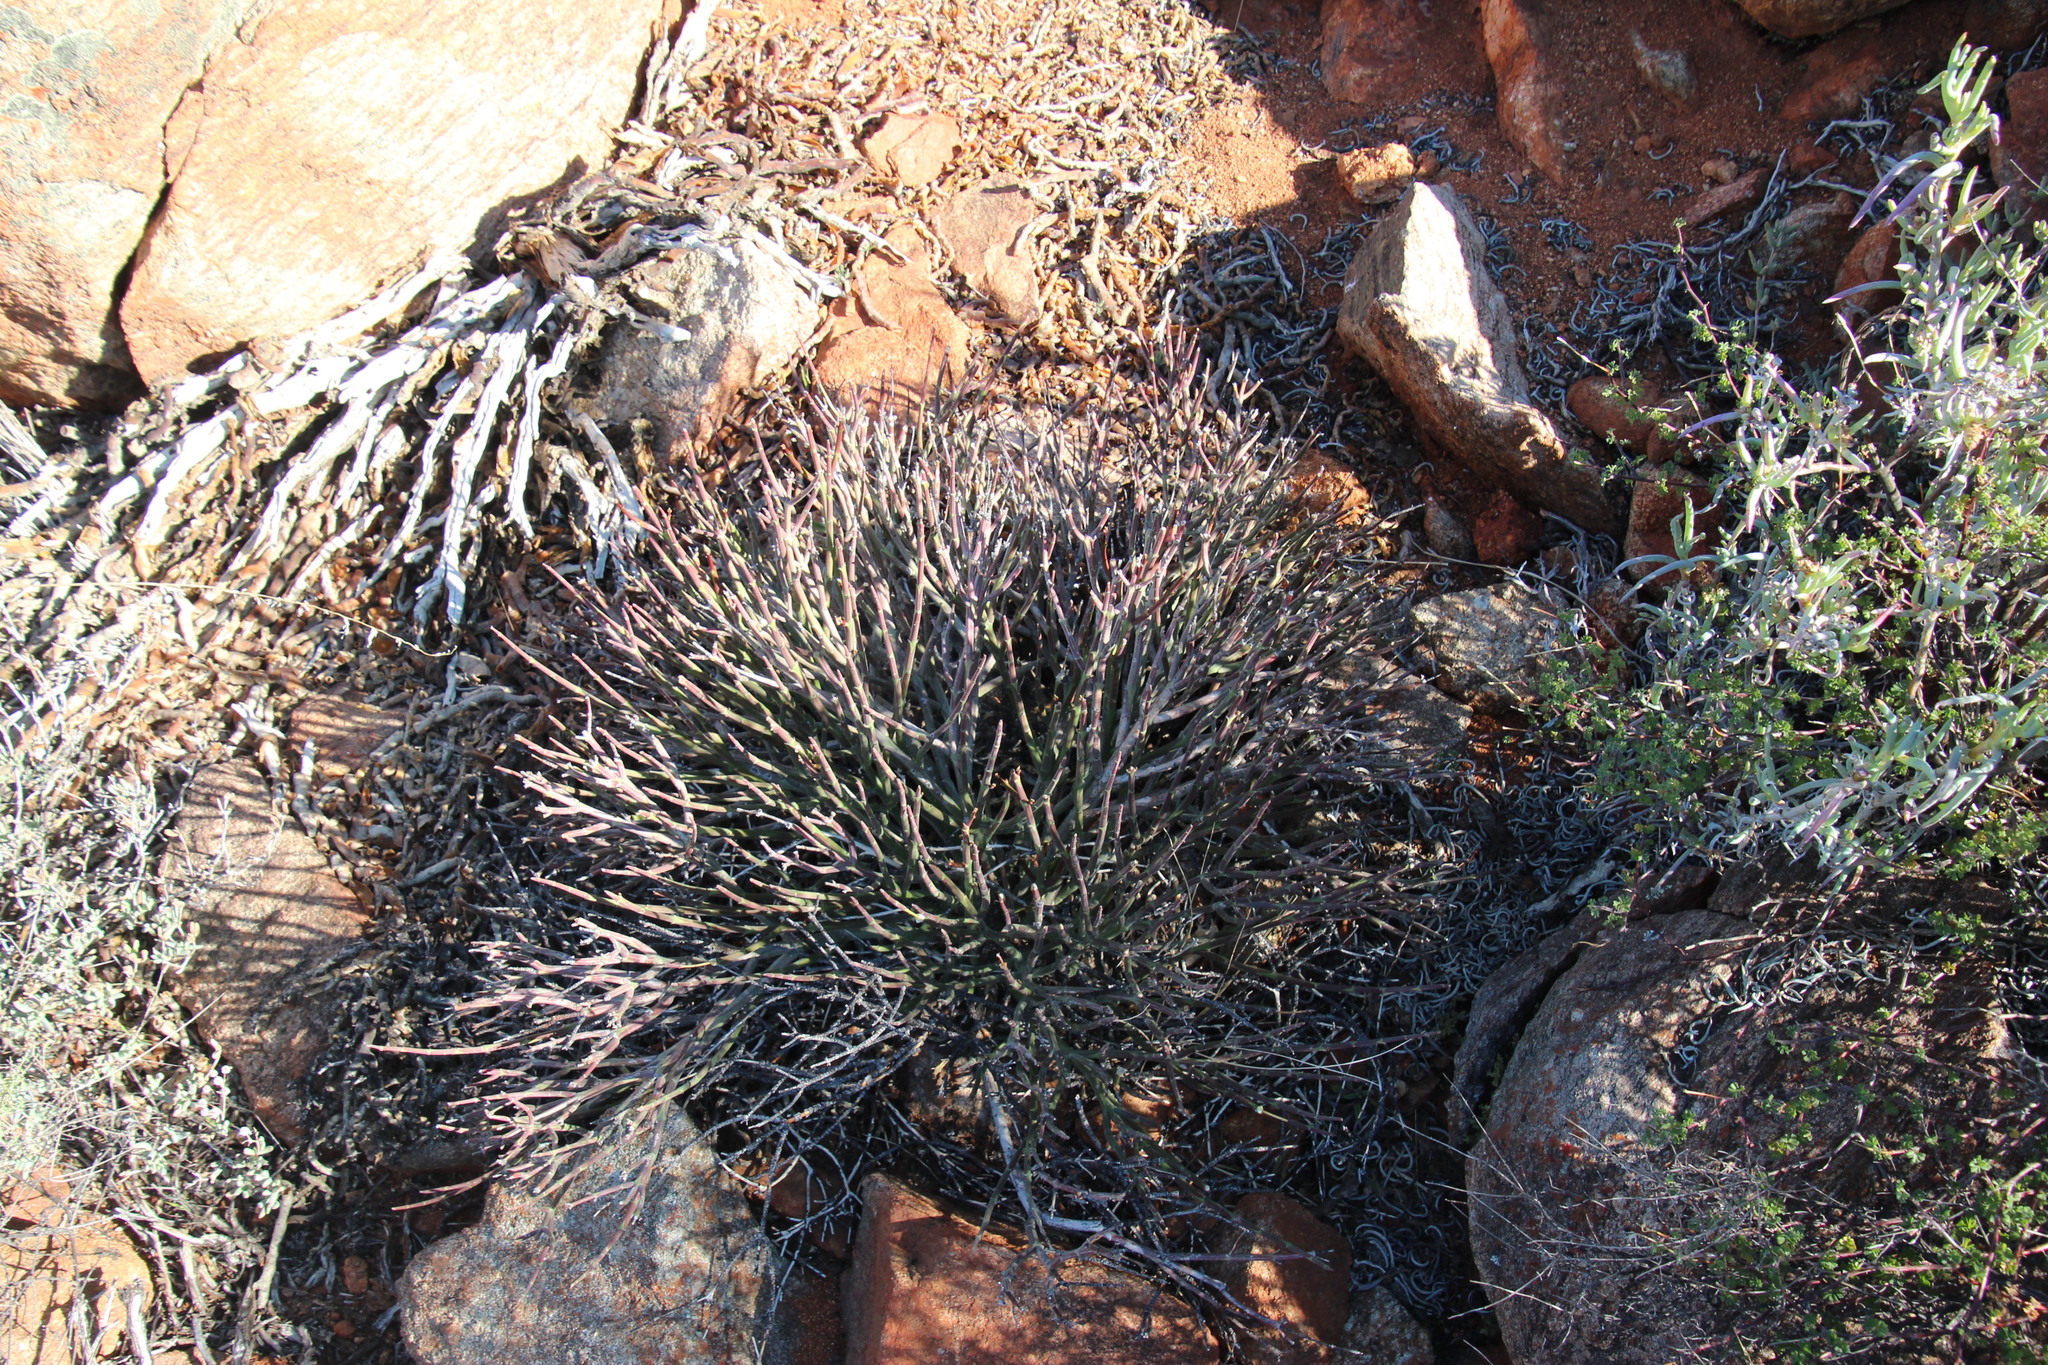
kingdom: Plantae
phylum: Tracheophyta
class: Magnoliopsida
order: Malpighiales
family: Euphorbiaceae
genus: Euphorbia
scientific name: Euphorbia rhombifolia
